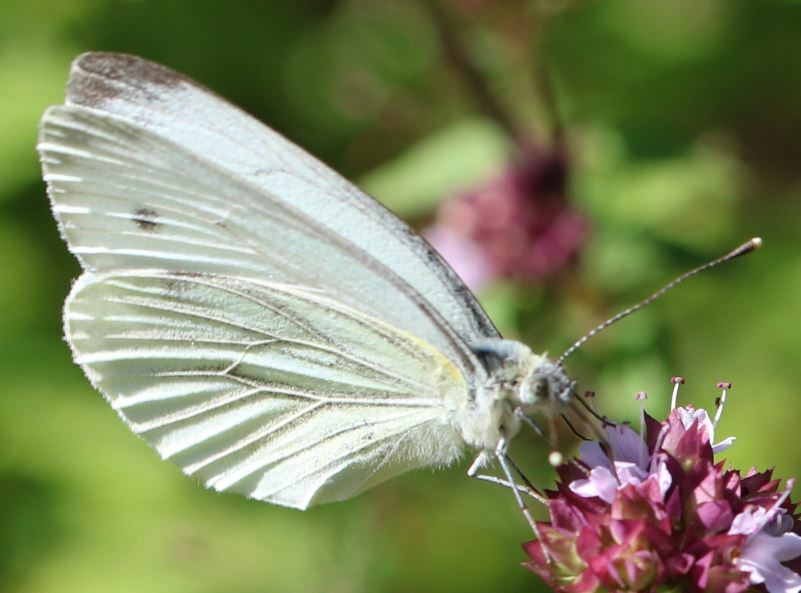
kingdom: Animalia
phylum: Arthropoda
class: Insecta
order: Lepidoptera
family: Pieridae
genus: Pieris
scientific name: Pieris napi
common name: Green-veined white
